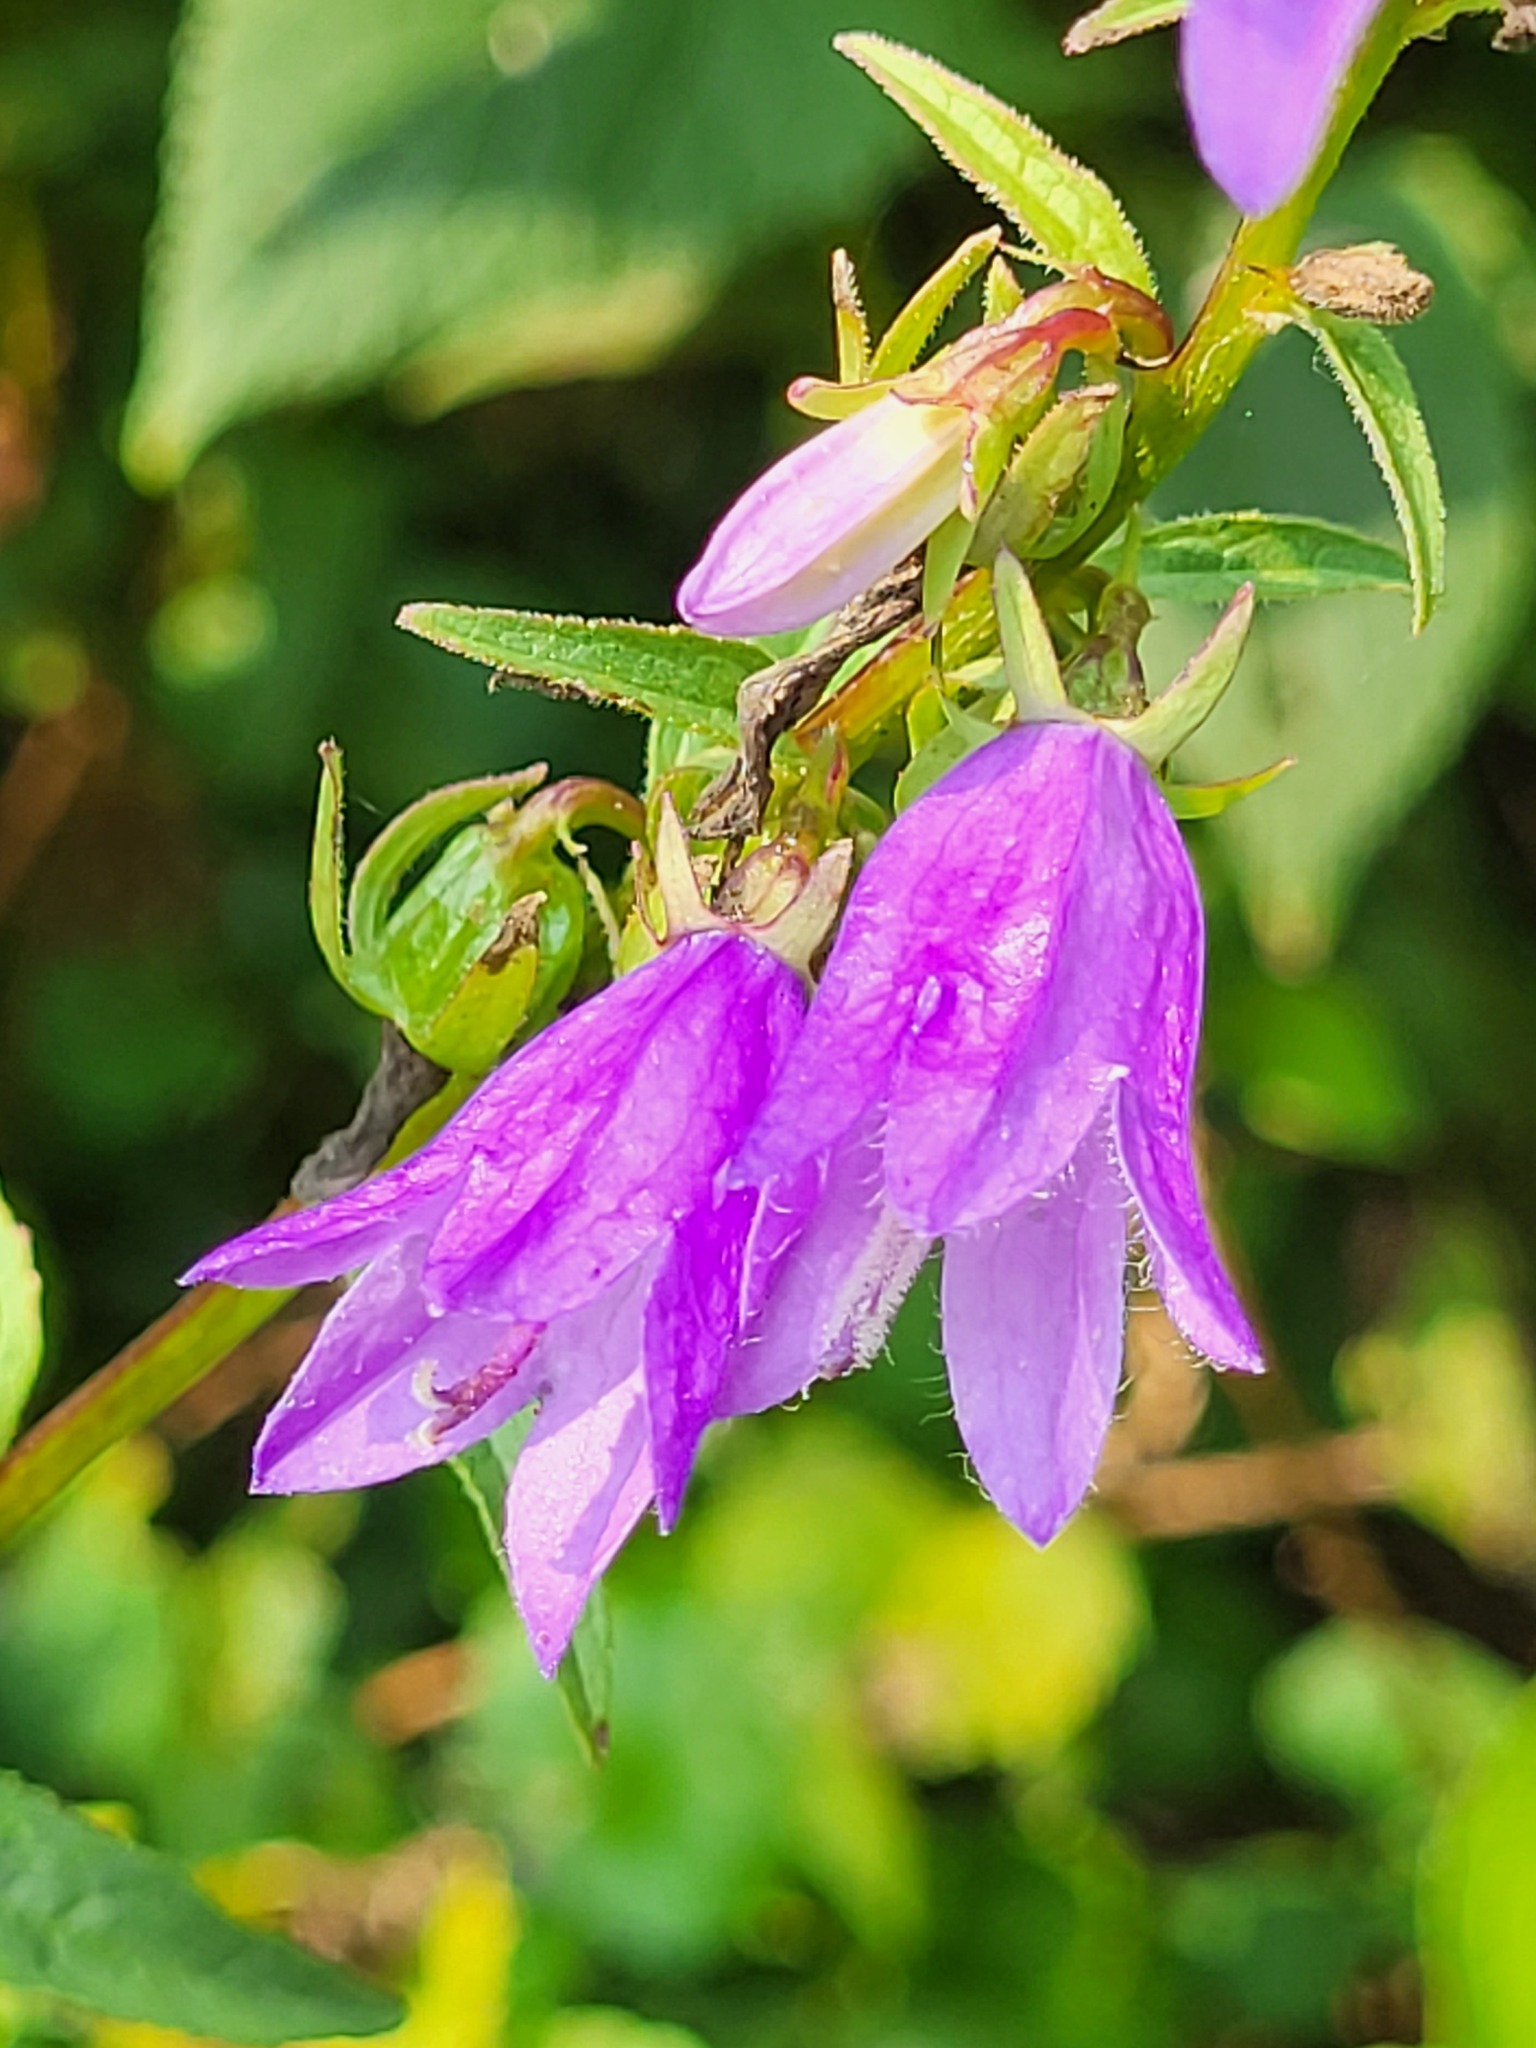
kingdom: Plantae
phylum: Tracheophyta
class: Magnoliopsida
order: Asterales
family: Campanulaceae
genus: Campanula
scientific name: Campanula rapunculoides
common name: Creeping bellflower
